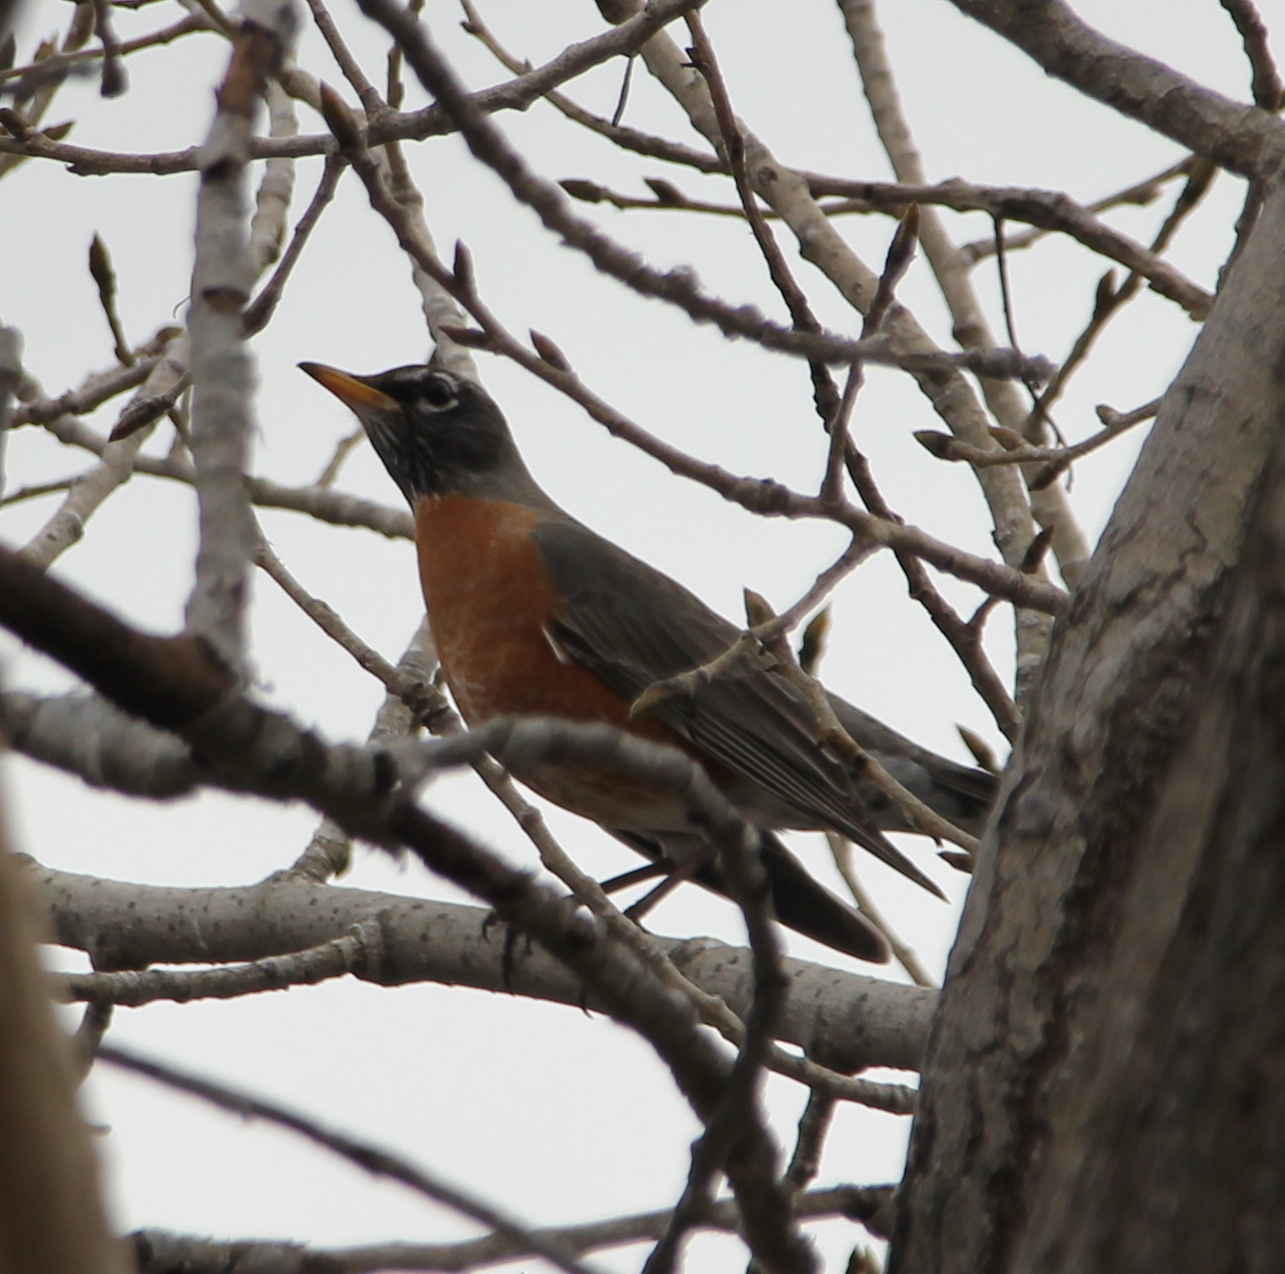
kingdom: Animalia
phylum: Chordata
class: Aves
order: Passeriformes
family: Turdidae
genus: Turdus
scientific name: Turdus migratorius
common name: American robin
